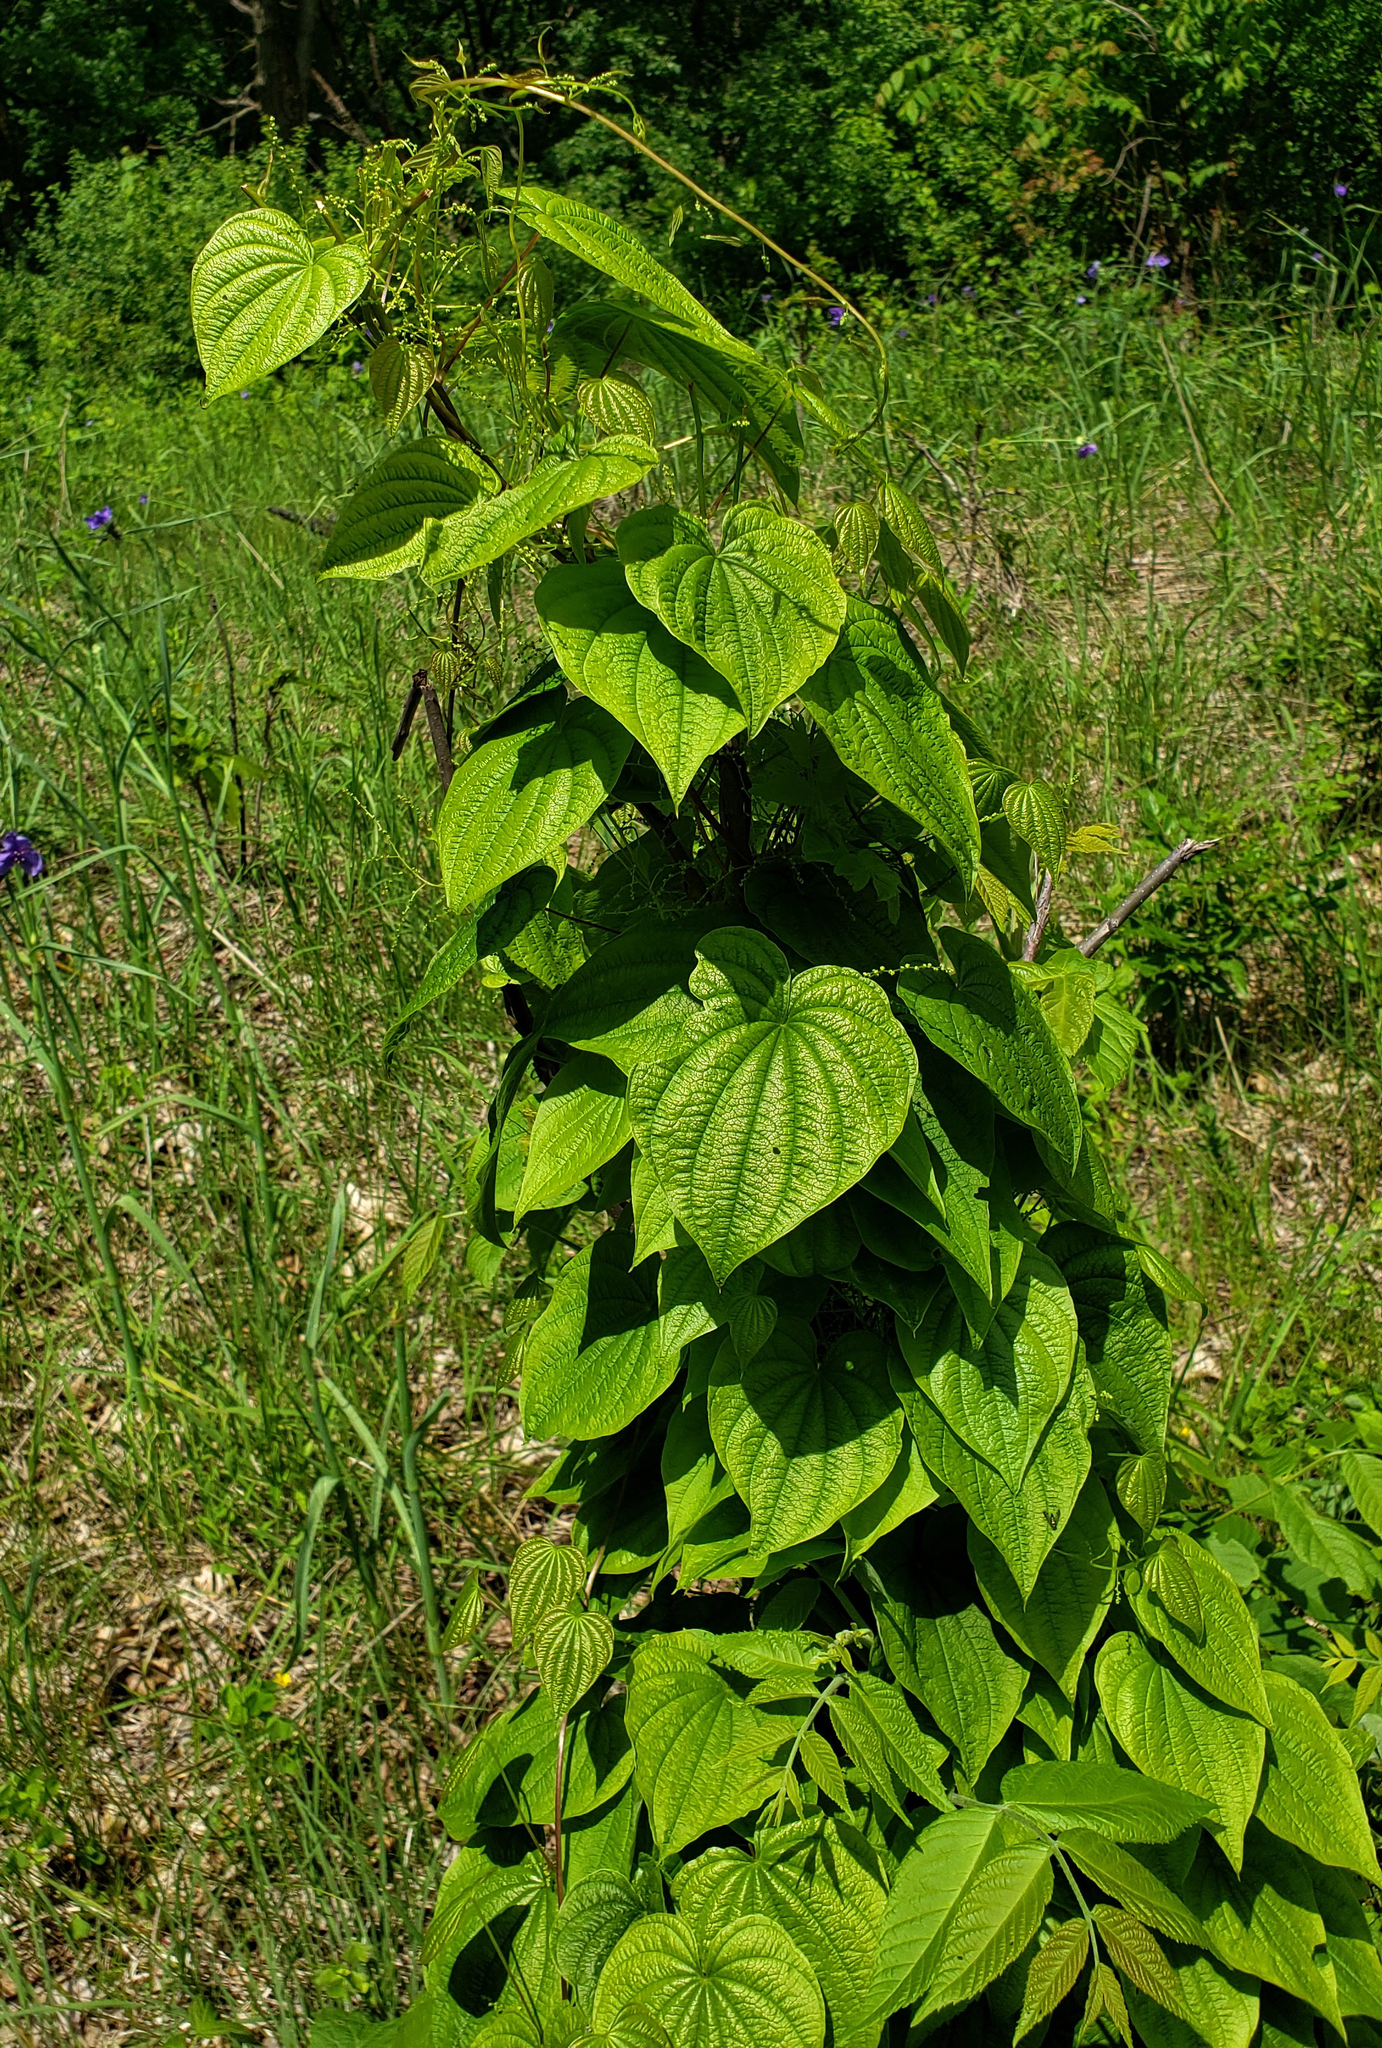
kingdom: Plantae
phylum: Tracheophyta
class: Liliopsida
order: Dioscoreales
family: Dioscoreaceae
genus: Dioscorea
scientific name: Dioscorea villosa
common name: Wild yam
